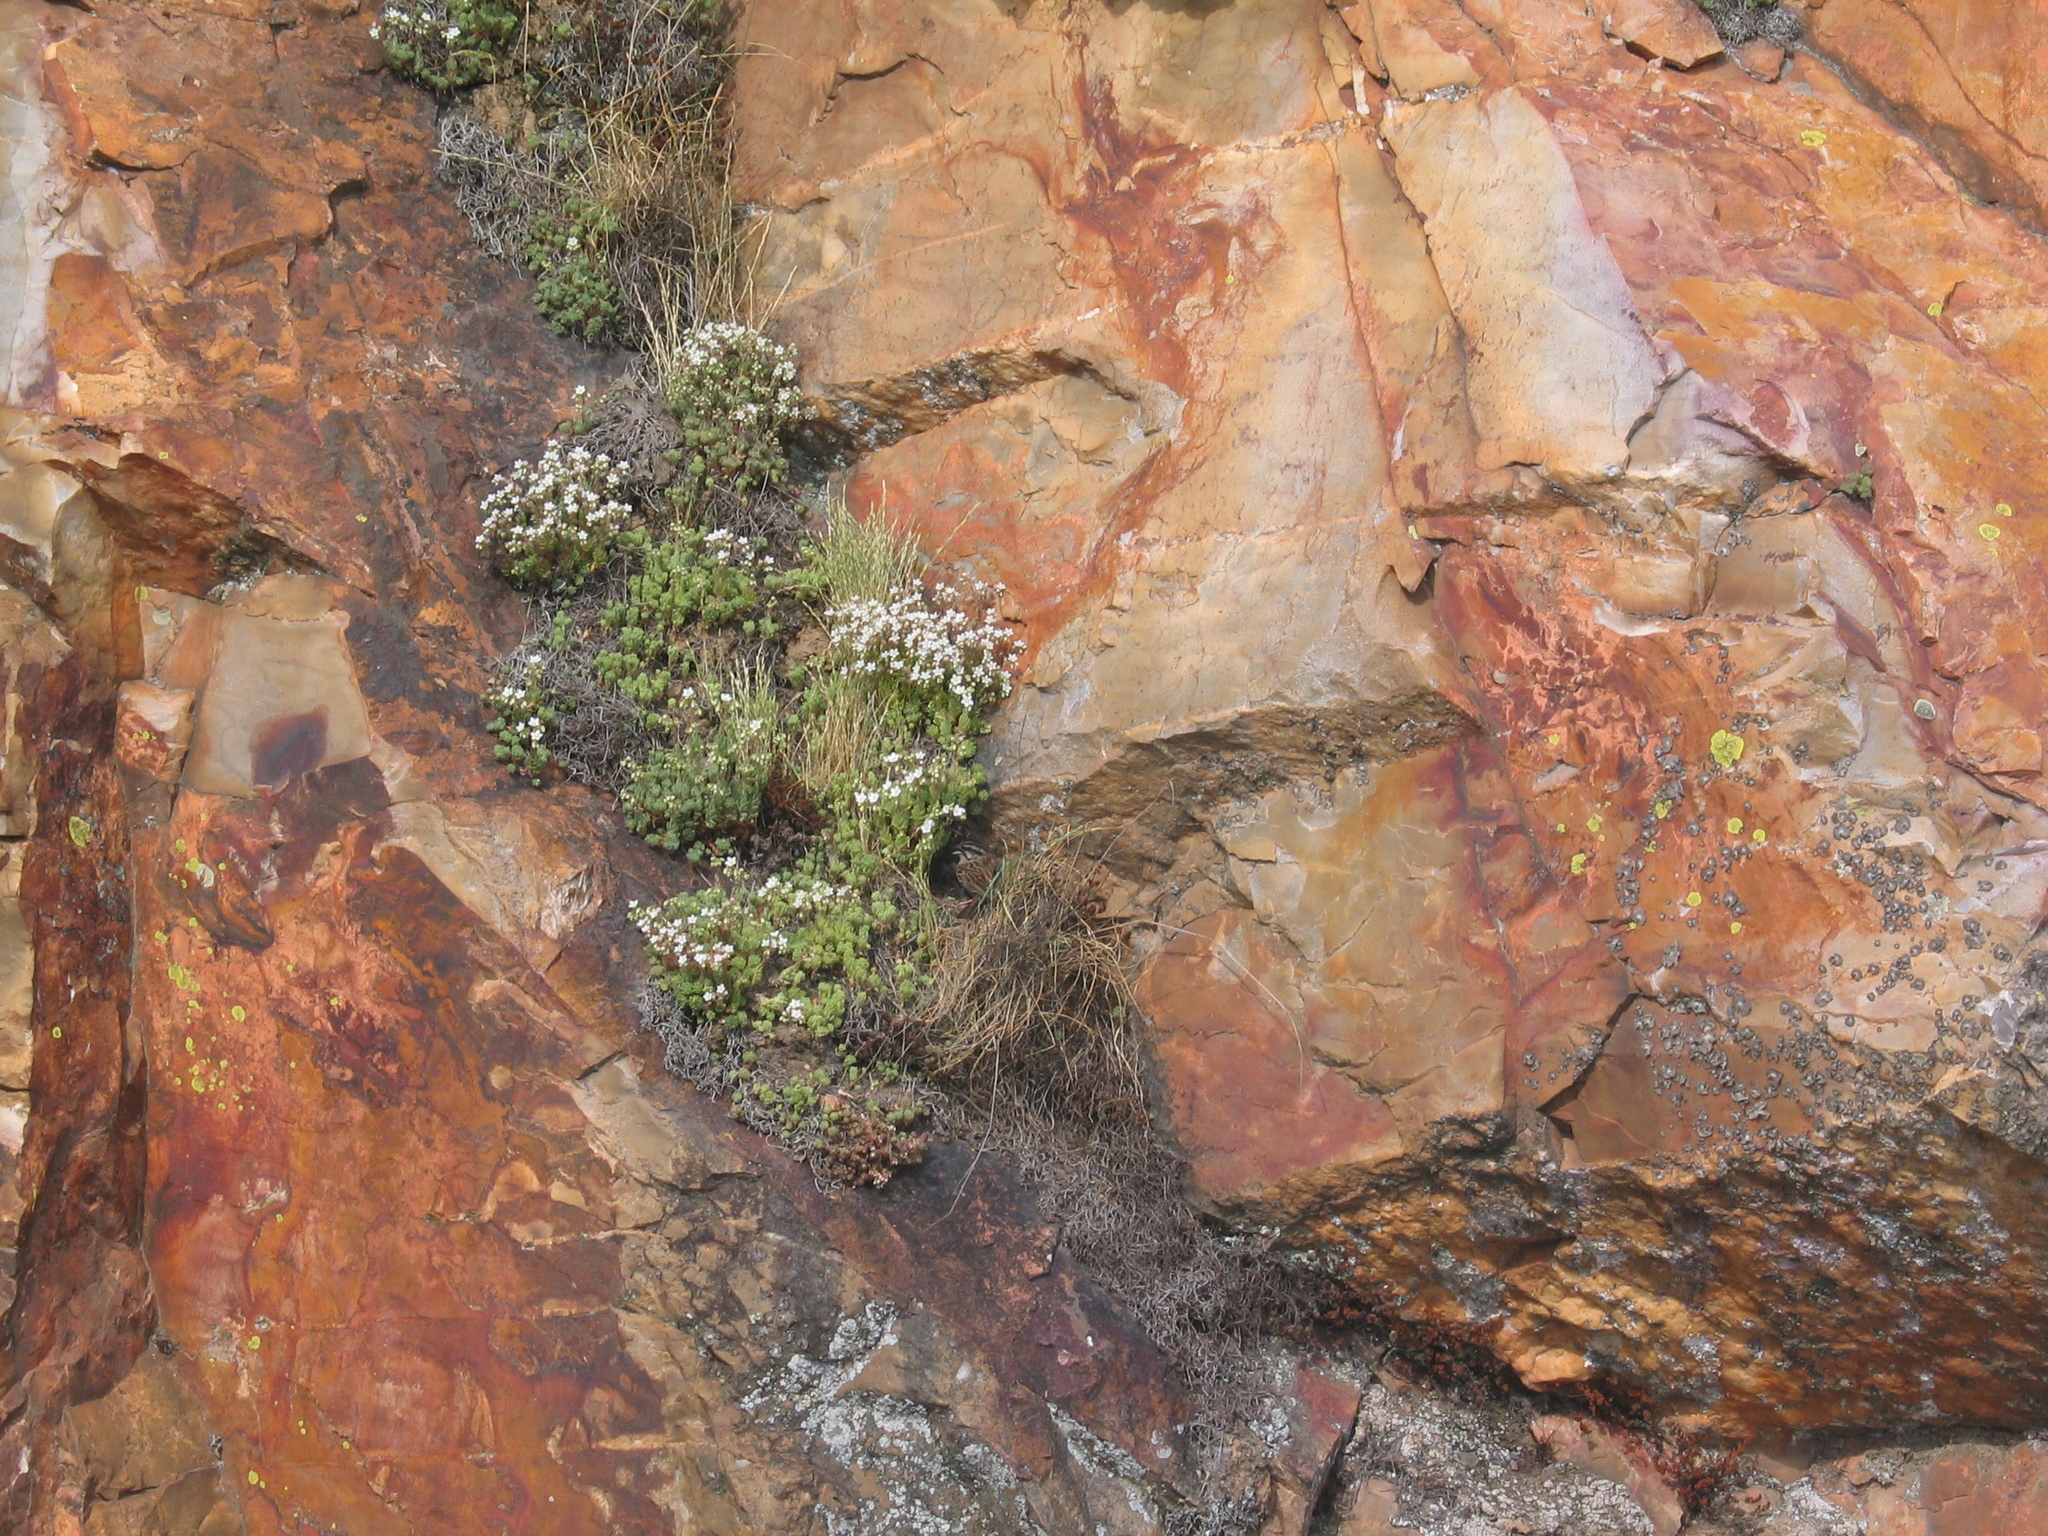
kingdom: Plantae
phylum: Tracheophyta
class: Magnoliopsida
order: Saxifragales
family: Crassulaceae
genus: Sedum
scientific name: Sedum hirsutum
